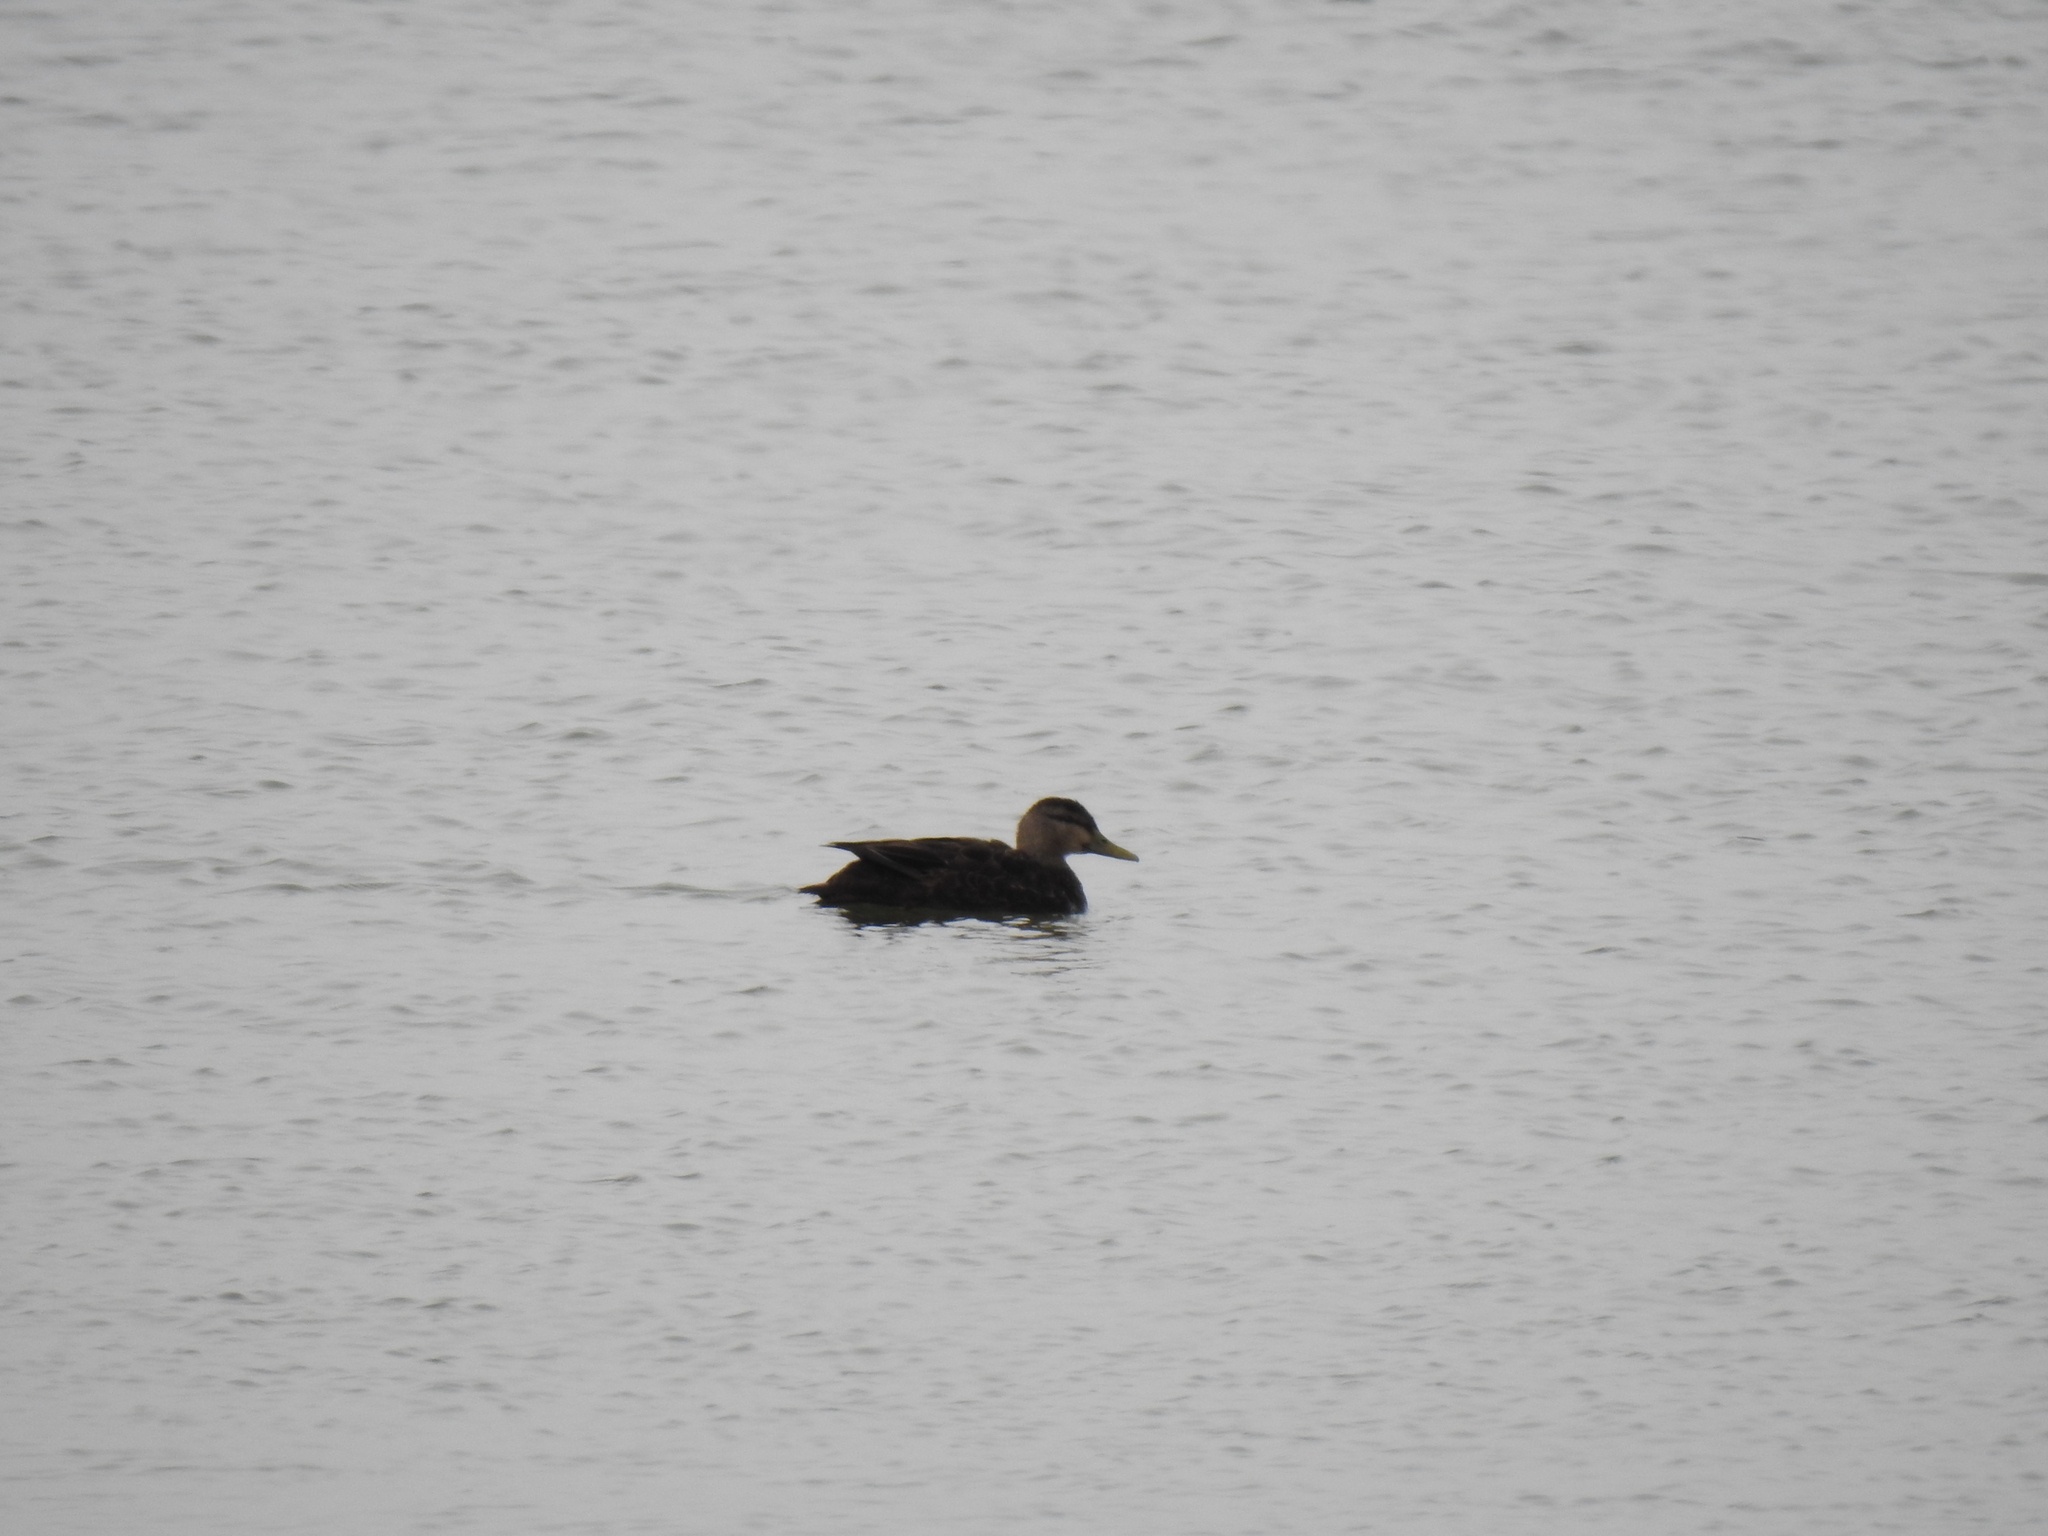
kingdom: Animalia
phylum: Chordata
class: Aves
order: Anseriformes
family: Anatidae
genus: Anas
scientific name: Anas rubripes
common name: American black duck
